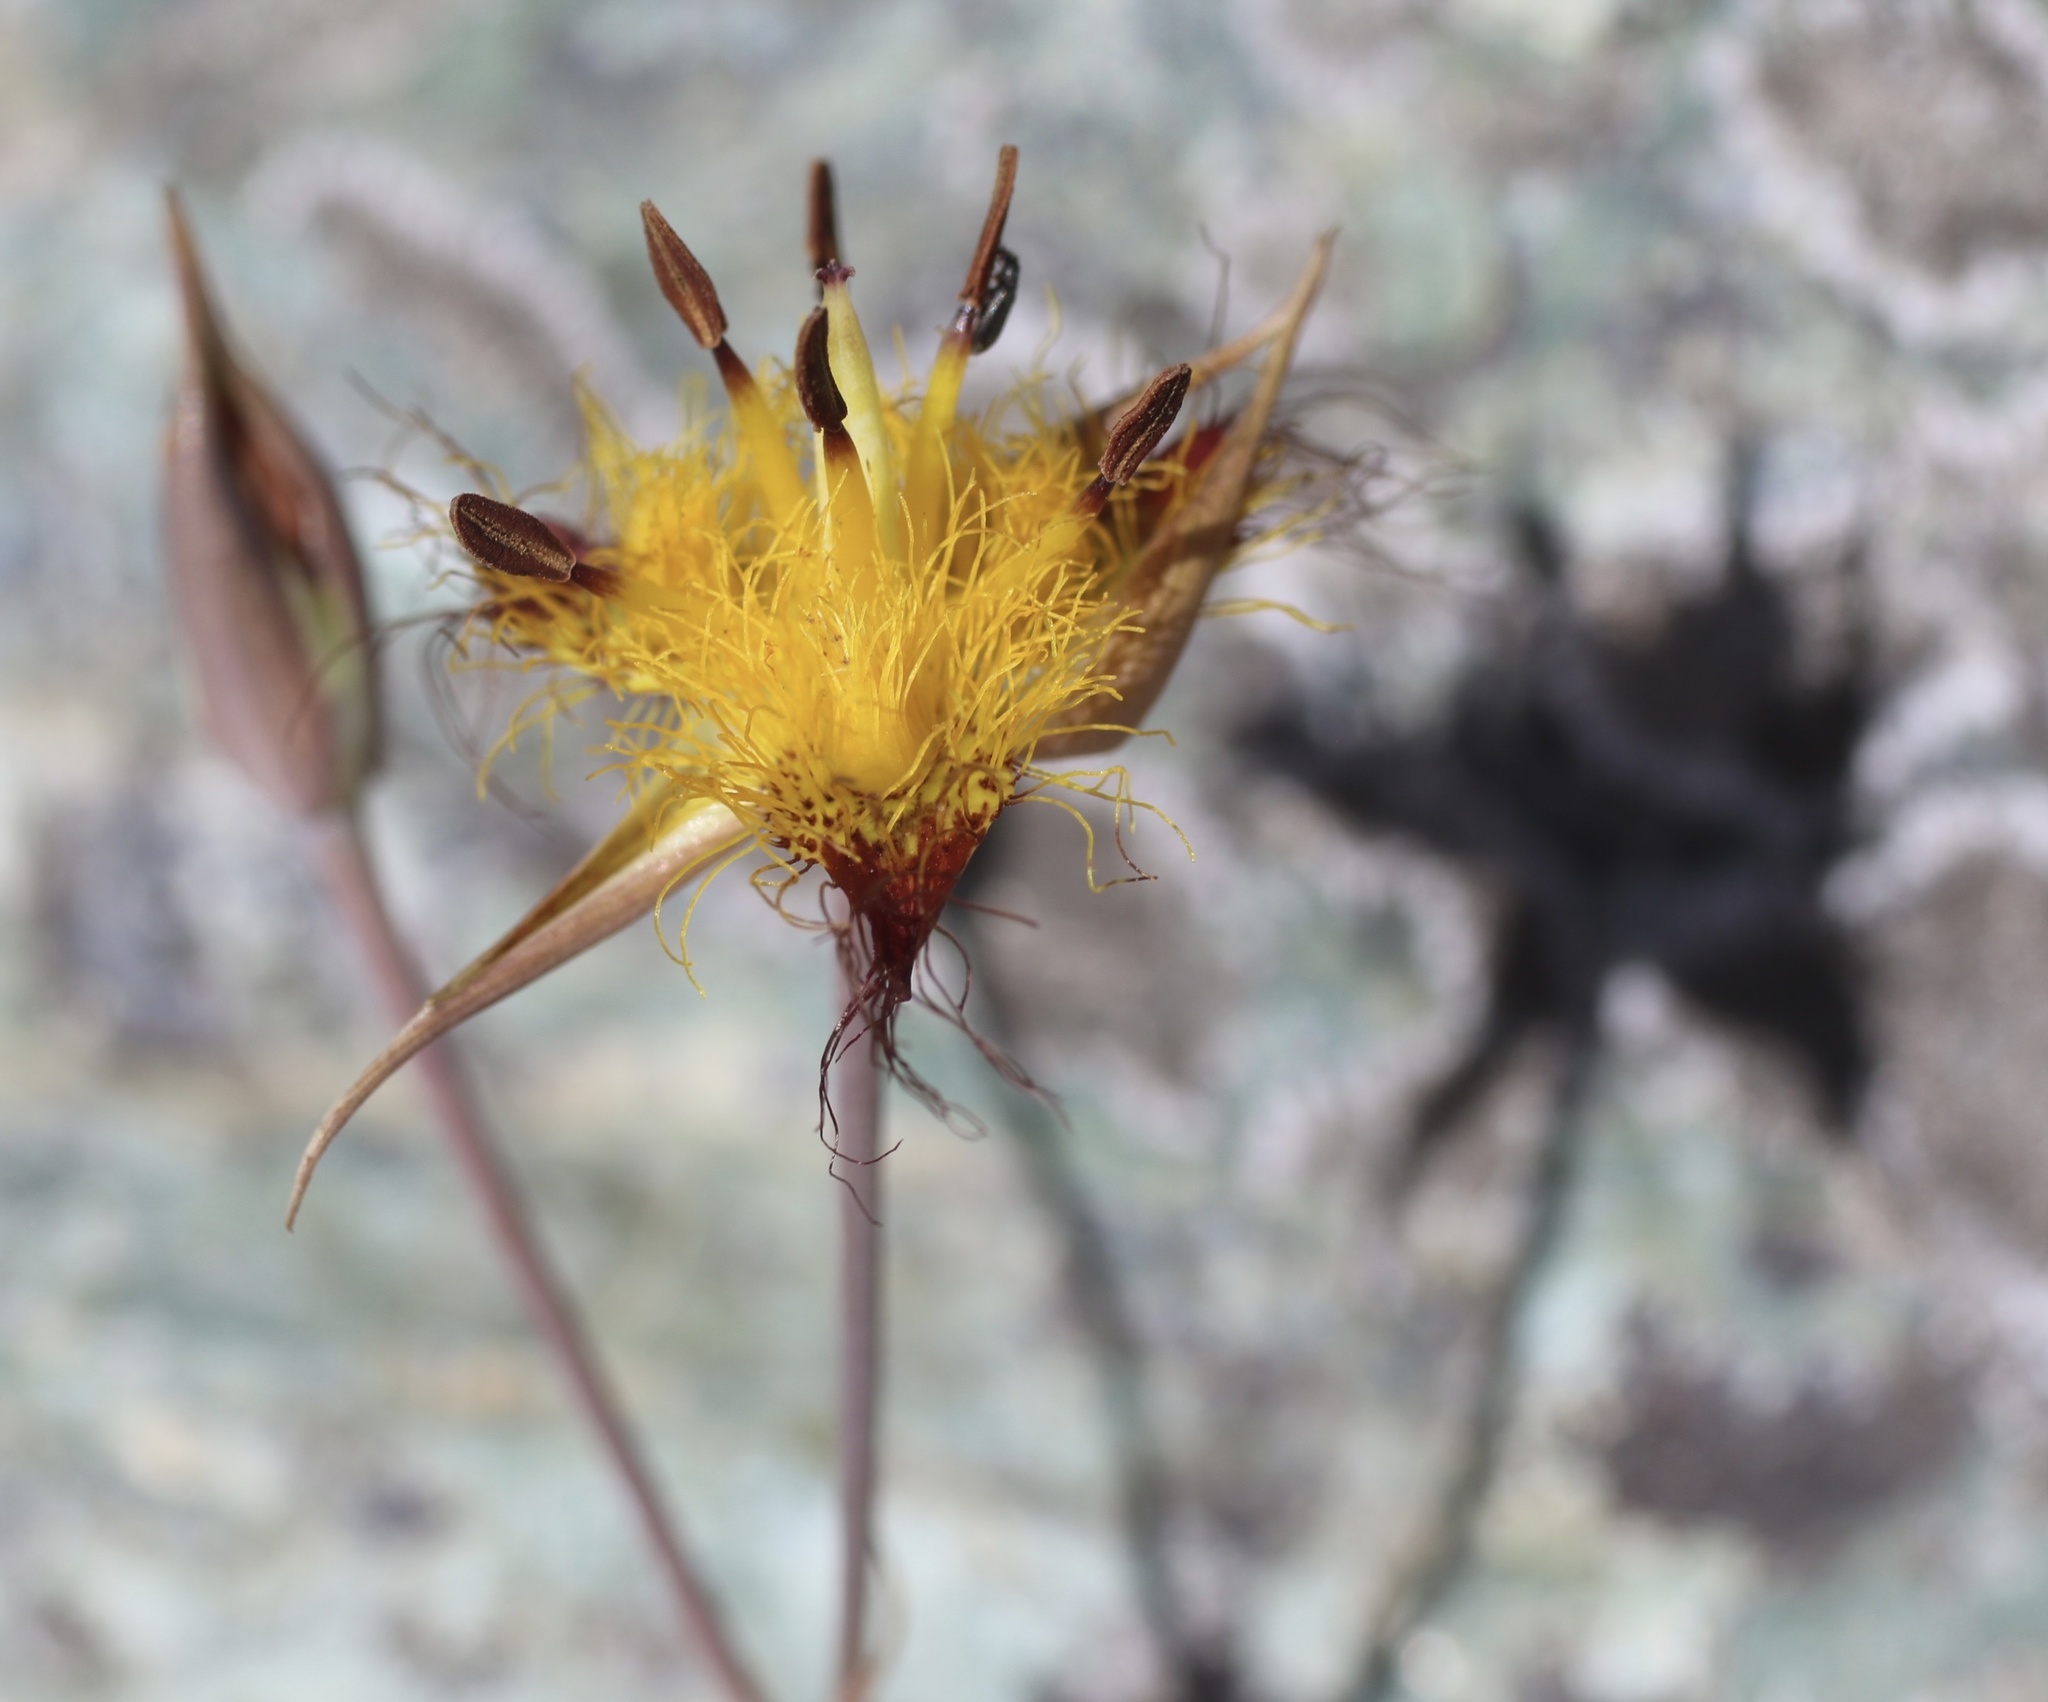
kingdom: Plantae
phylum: Tracheophyta
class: Liliopsida
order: Liliales
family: Liliaceae
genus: Calochortus
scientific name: Calochortus obispoensis
